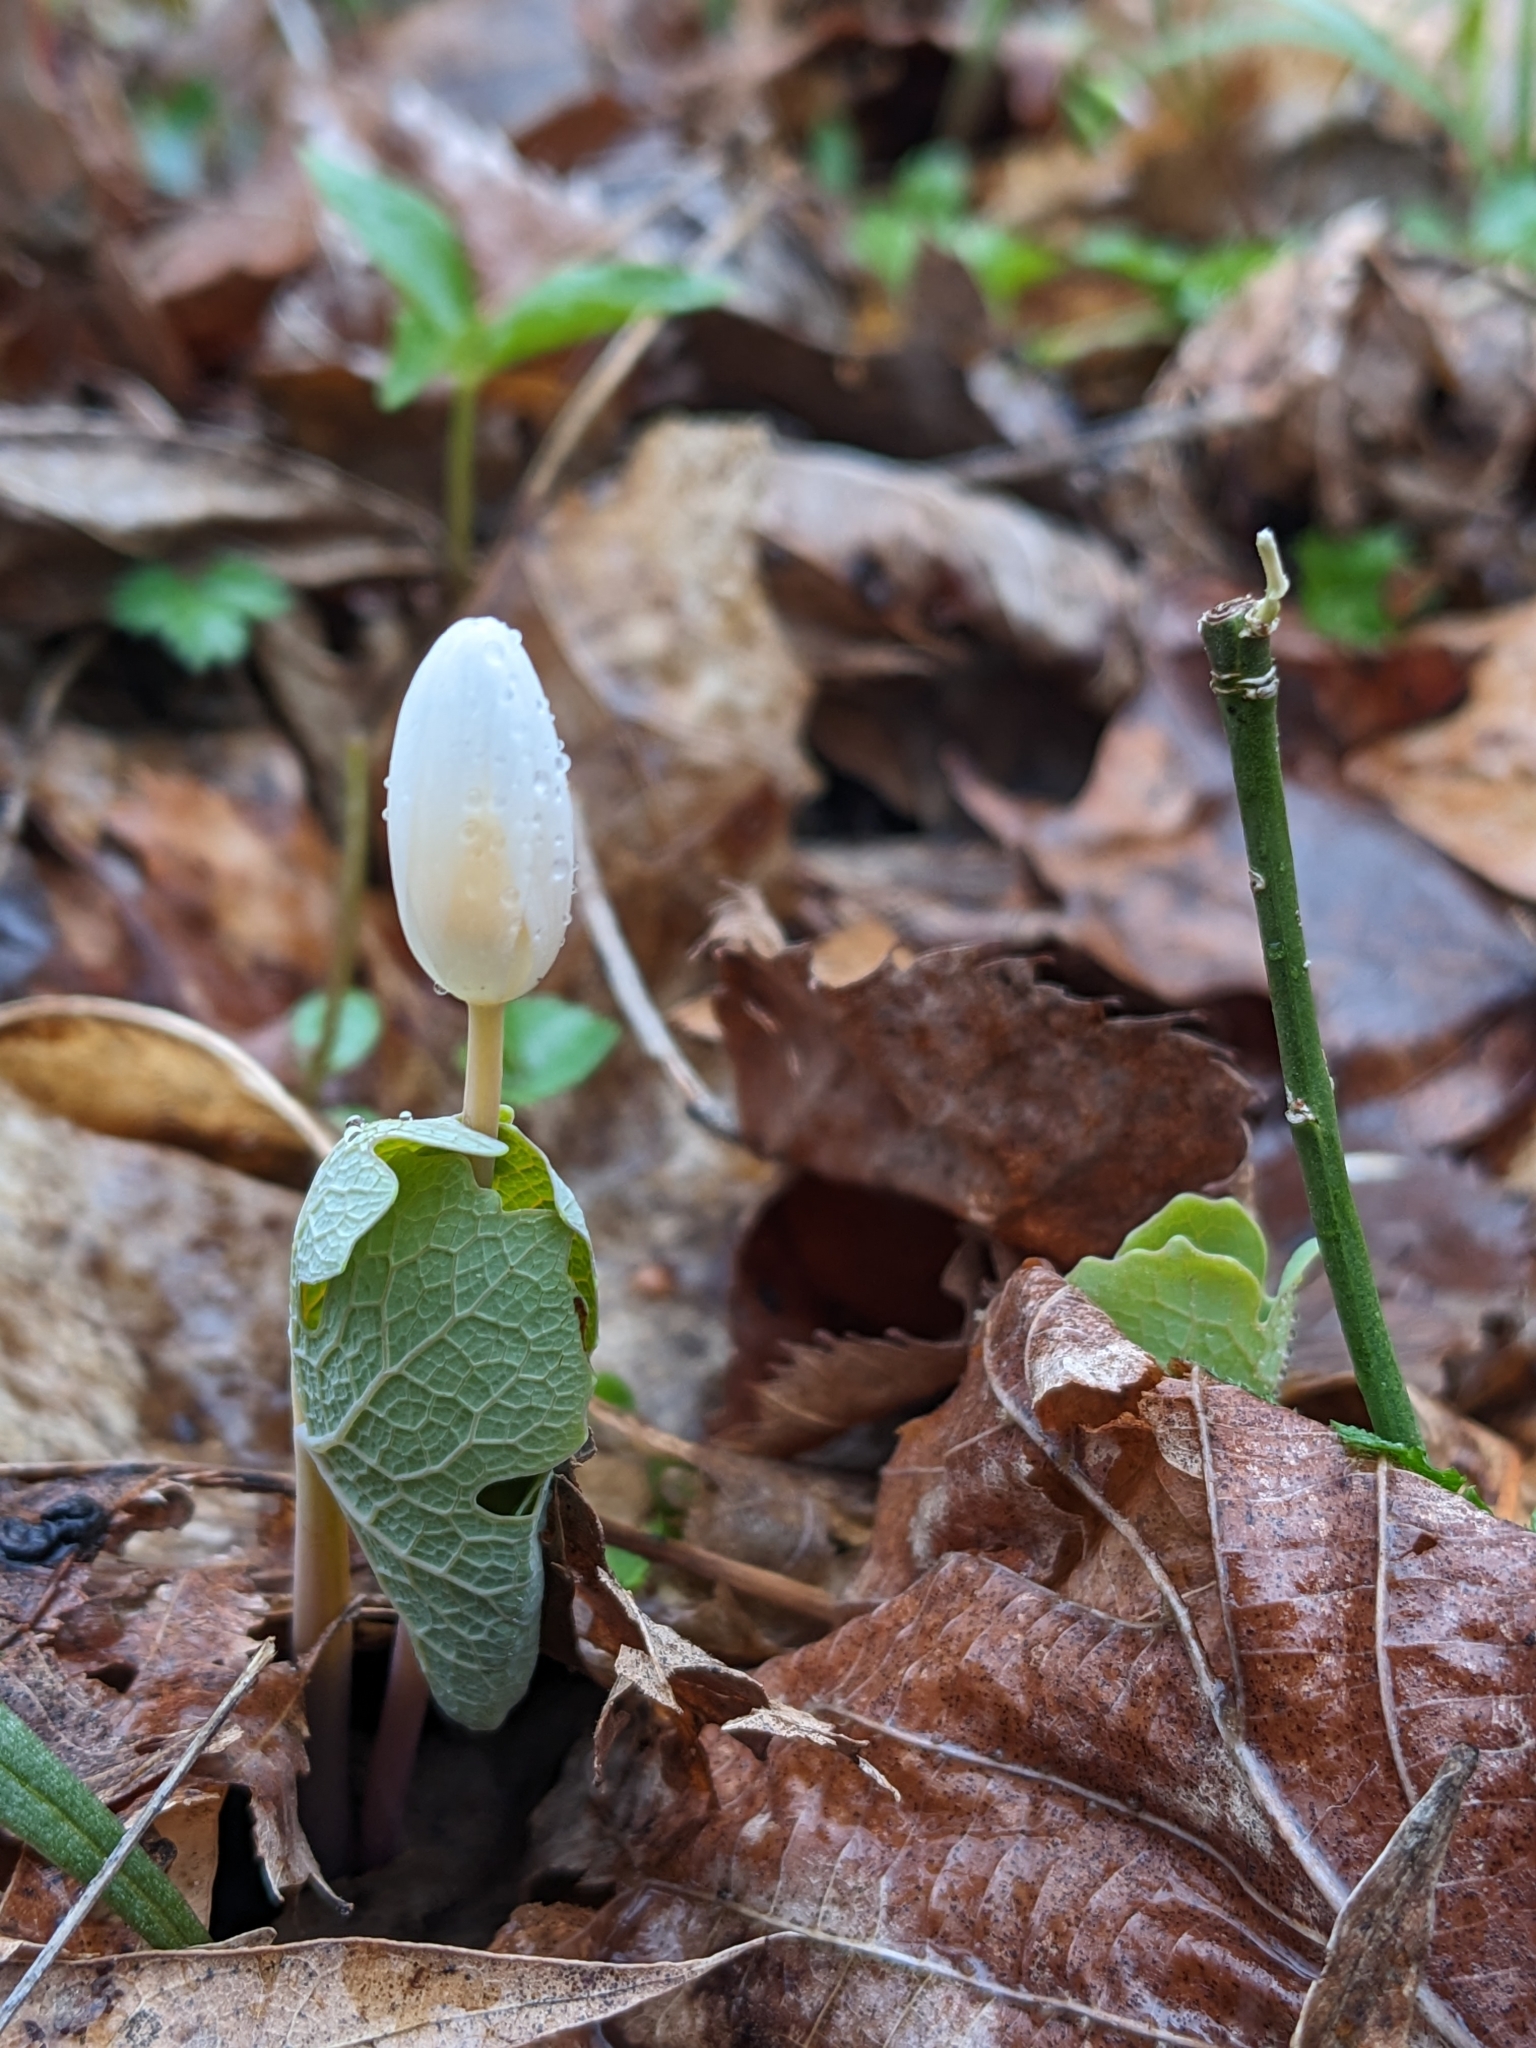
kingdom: Plantae
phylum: Tracheophyta
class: Magnoliopsida
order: Ranunculales
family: Papaveraceae
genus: Sanguinaria
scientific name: Sanguinaria canadensis
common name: Bloodroot
